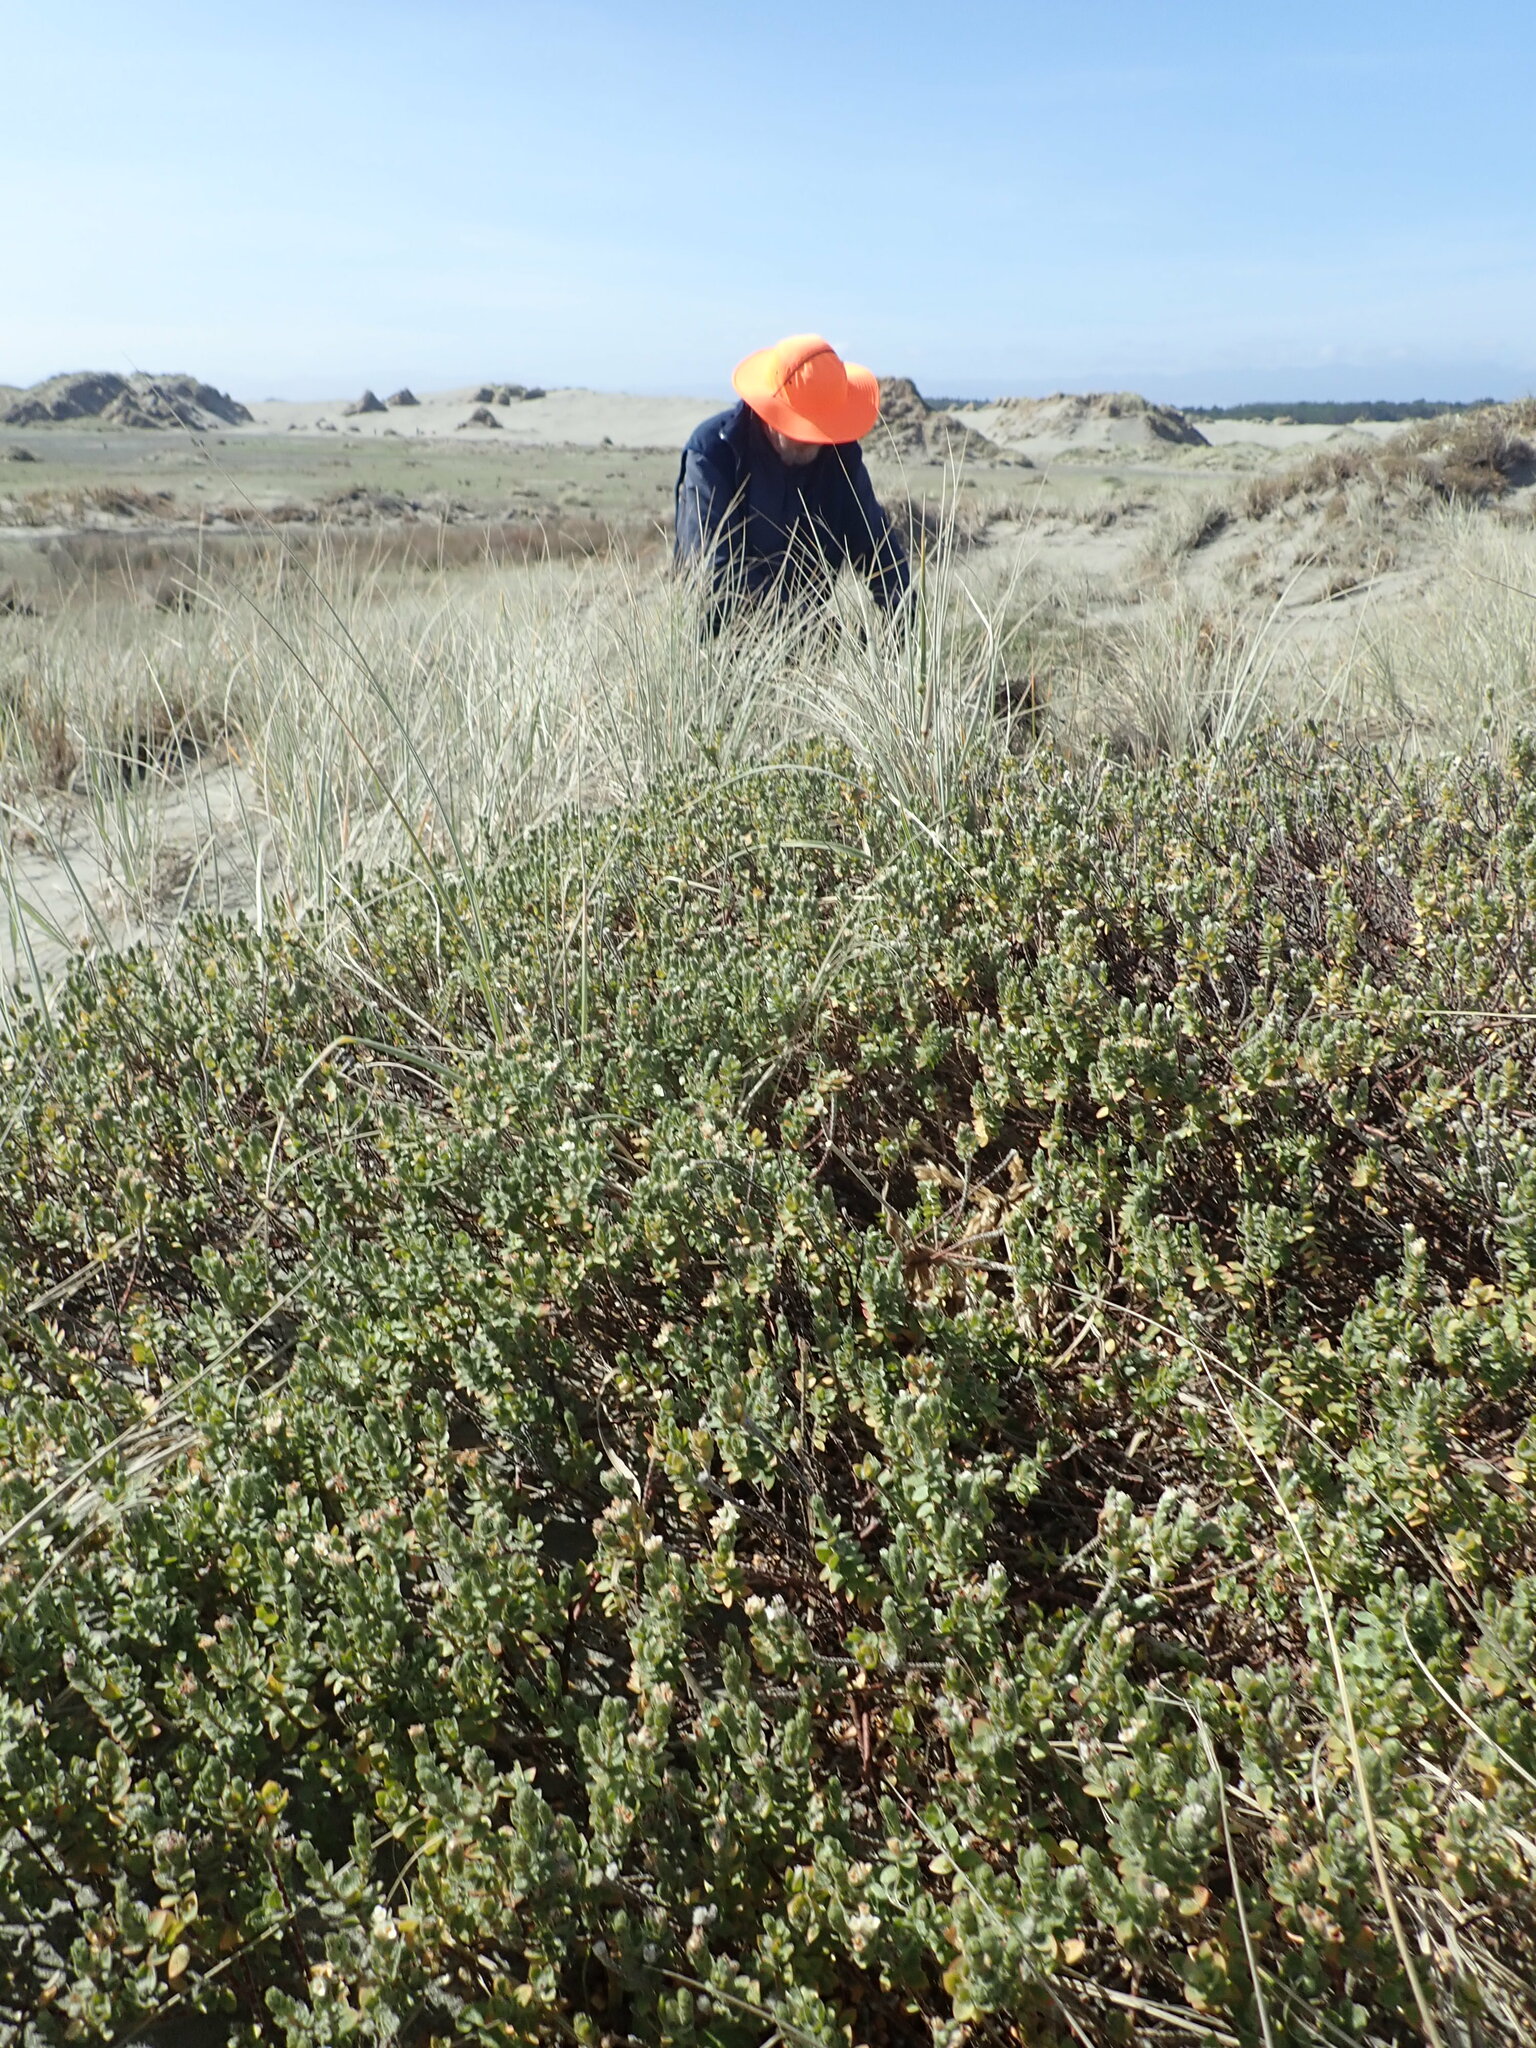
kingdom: Animalia
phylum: Arthropoda
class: Arachnida
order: Araneae
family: Theridiidae
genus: Latrodectus
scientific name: Latrodectus katipo
